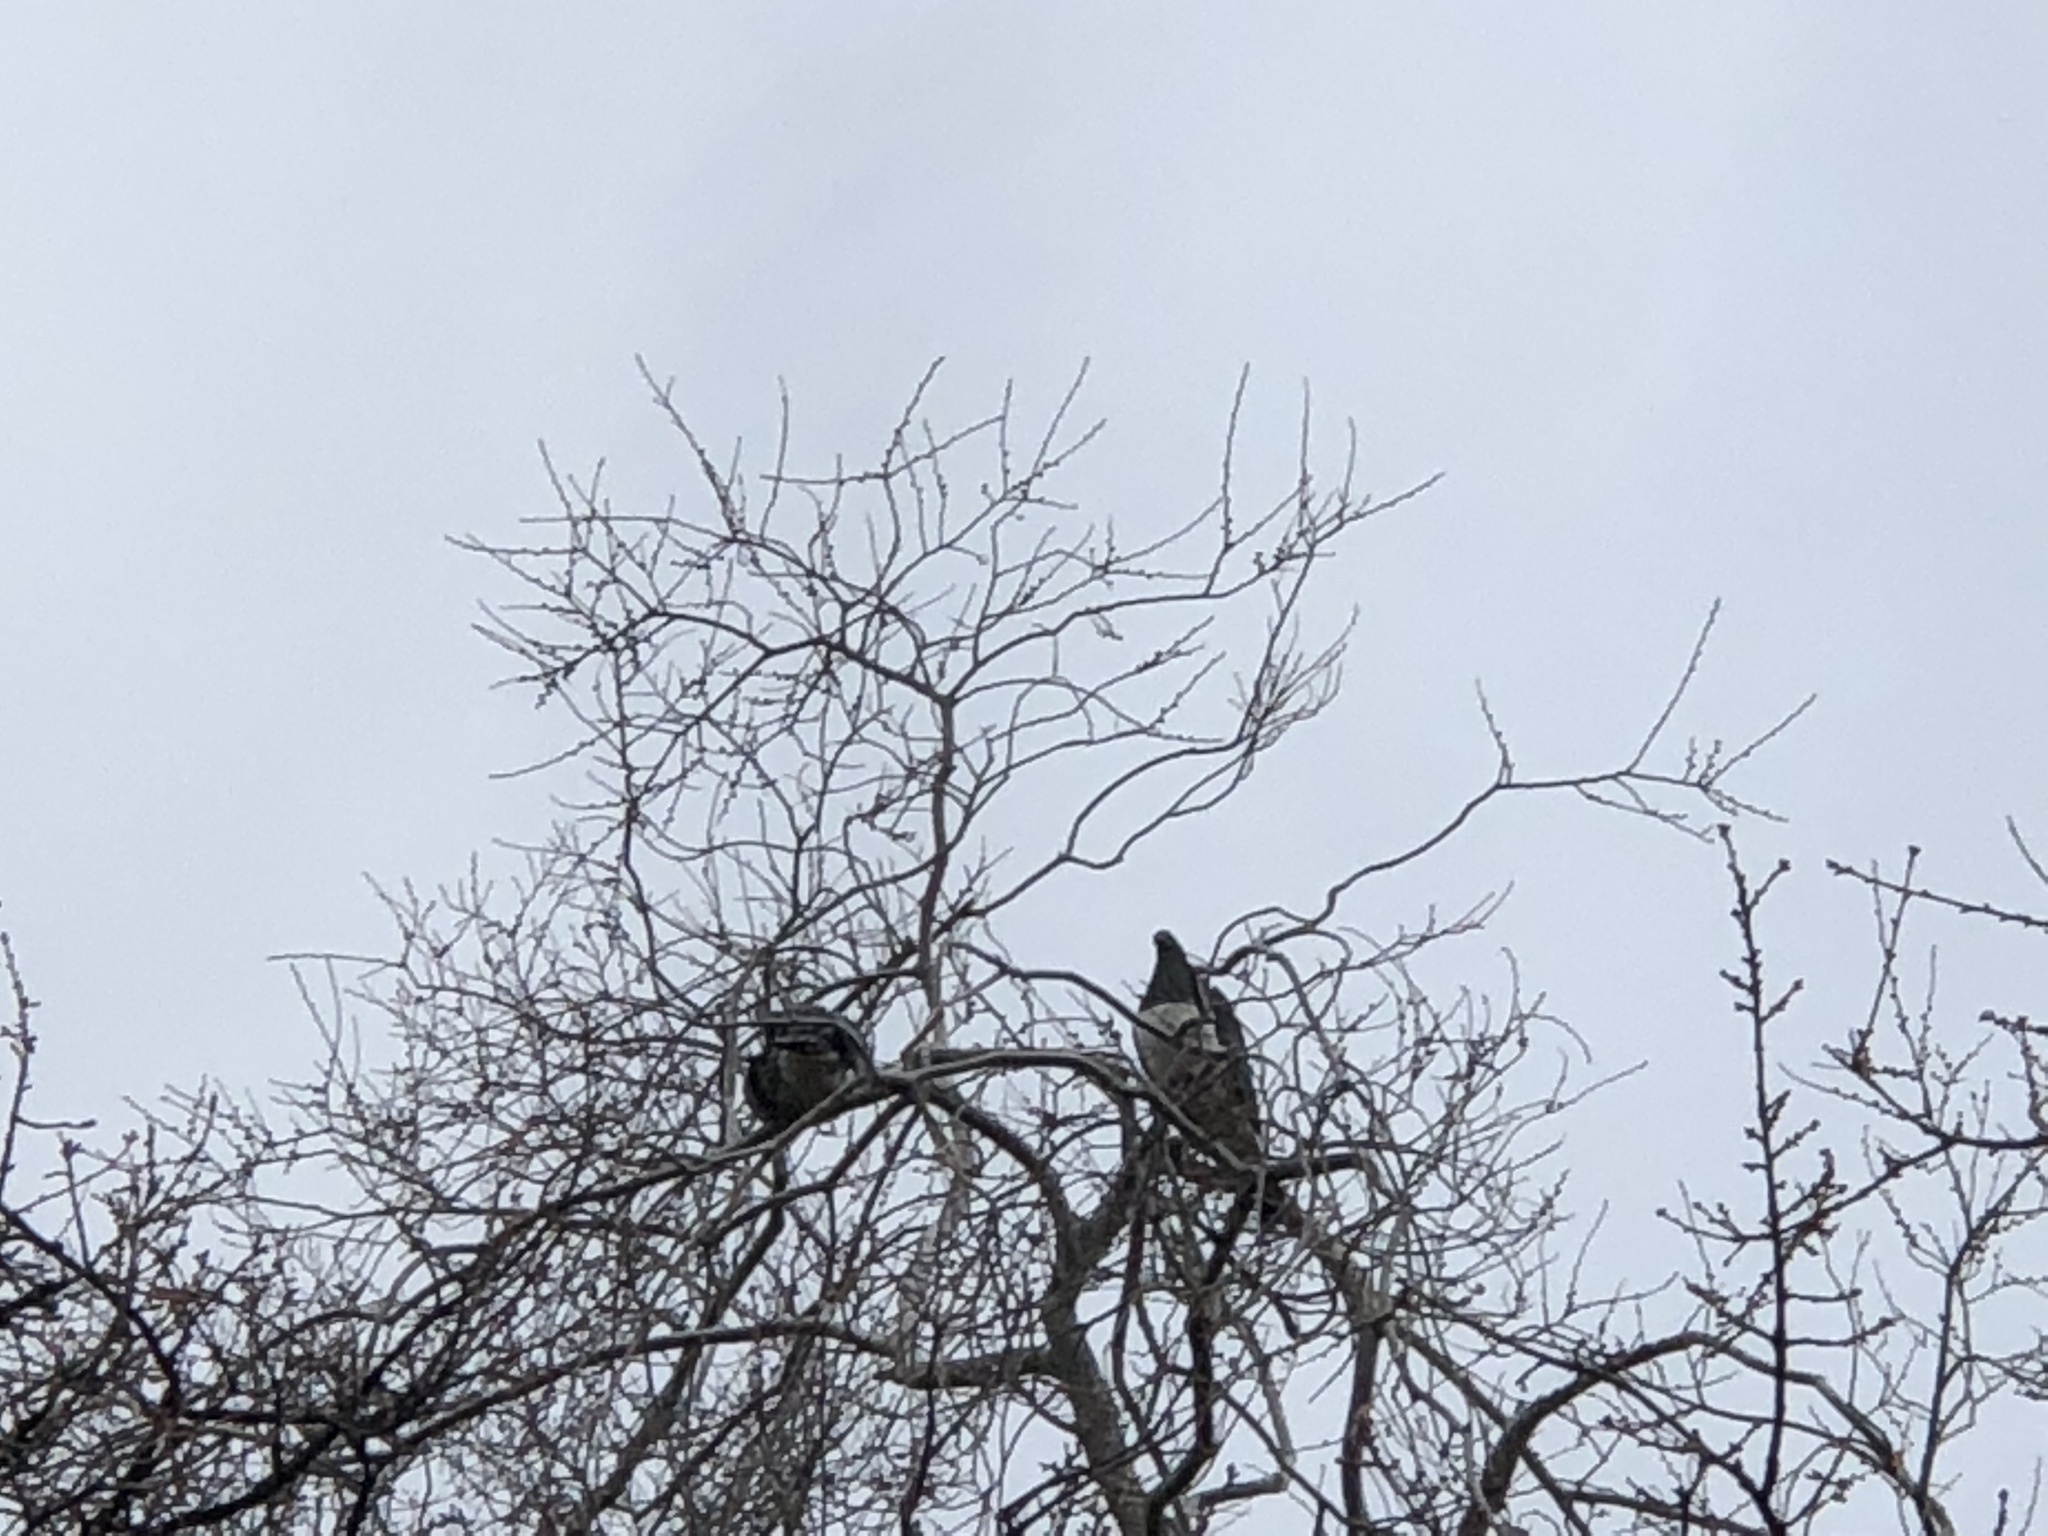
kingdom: Animalia
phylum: Chordata
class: Aves
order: Columbiformes
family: Columbidae
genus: Hemiphaga
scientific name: Hemiphaga novaeseelandiae
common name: New zealand pigeon
